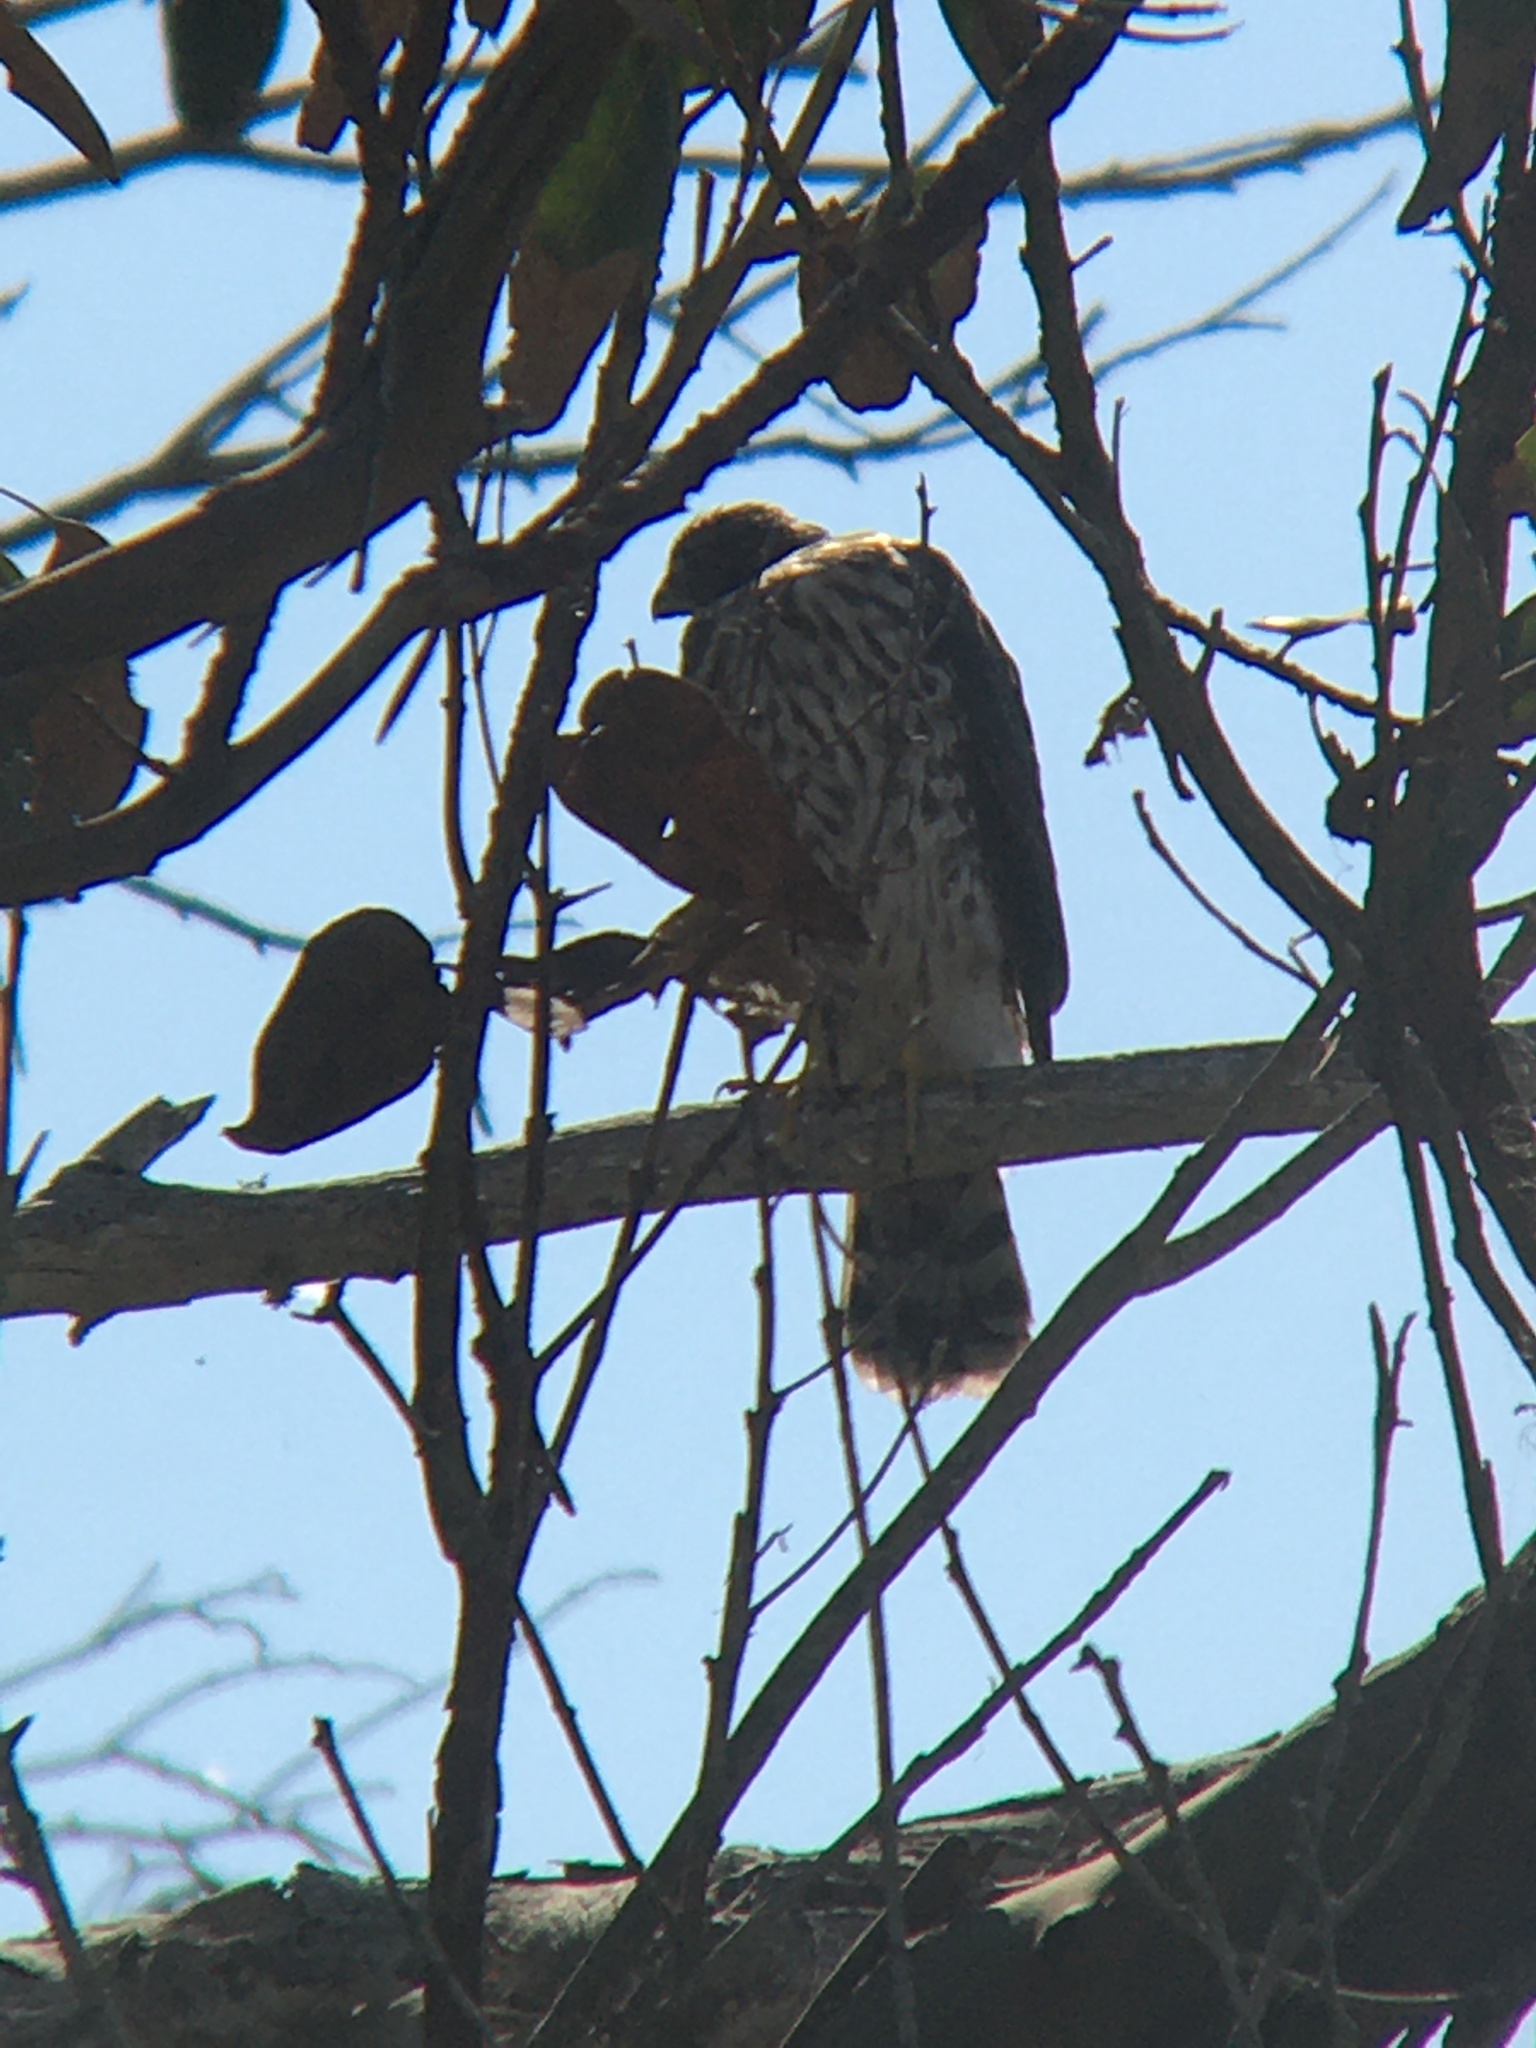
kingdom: Animalia
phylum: Chordata
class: Aves
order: Accipitriformes
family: Accipitridae
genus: Accipiter
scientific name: Accipiter cooperii
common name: Cooper's hawk
